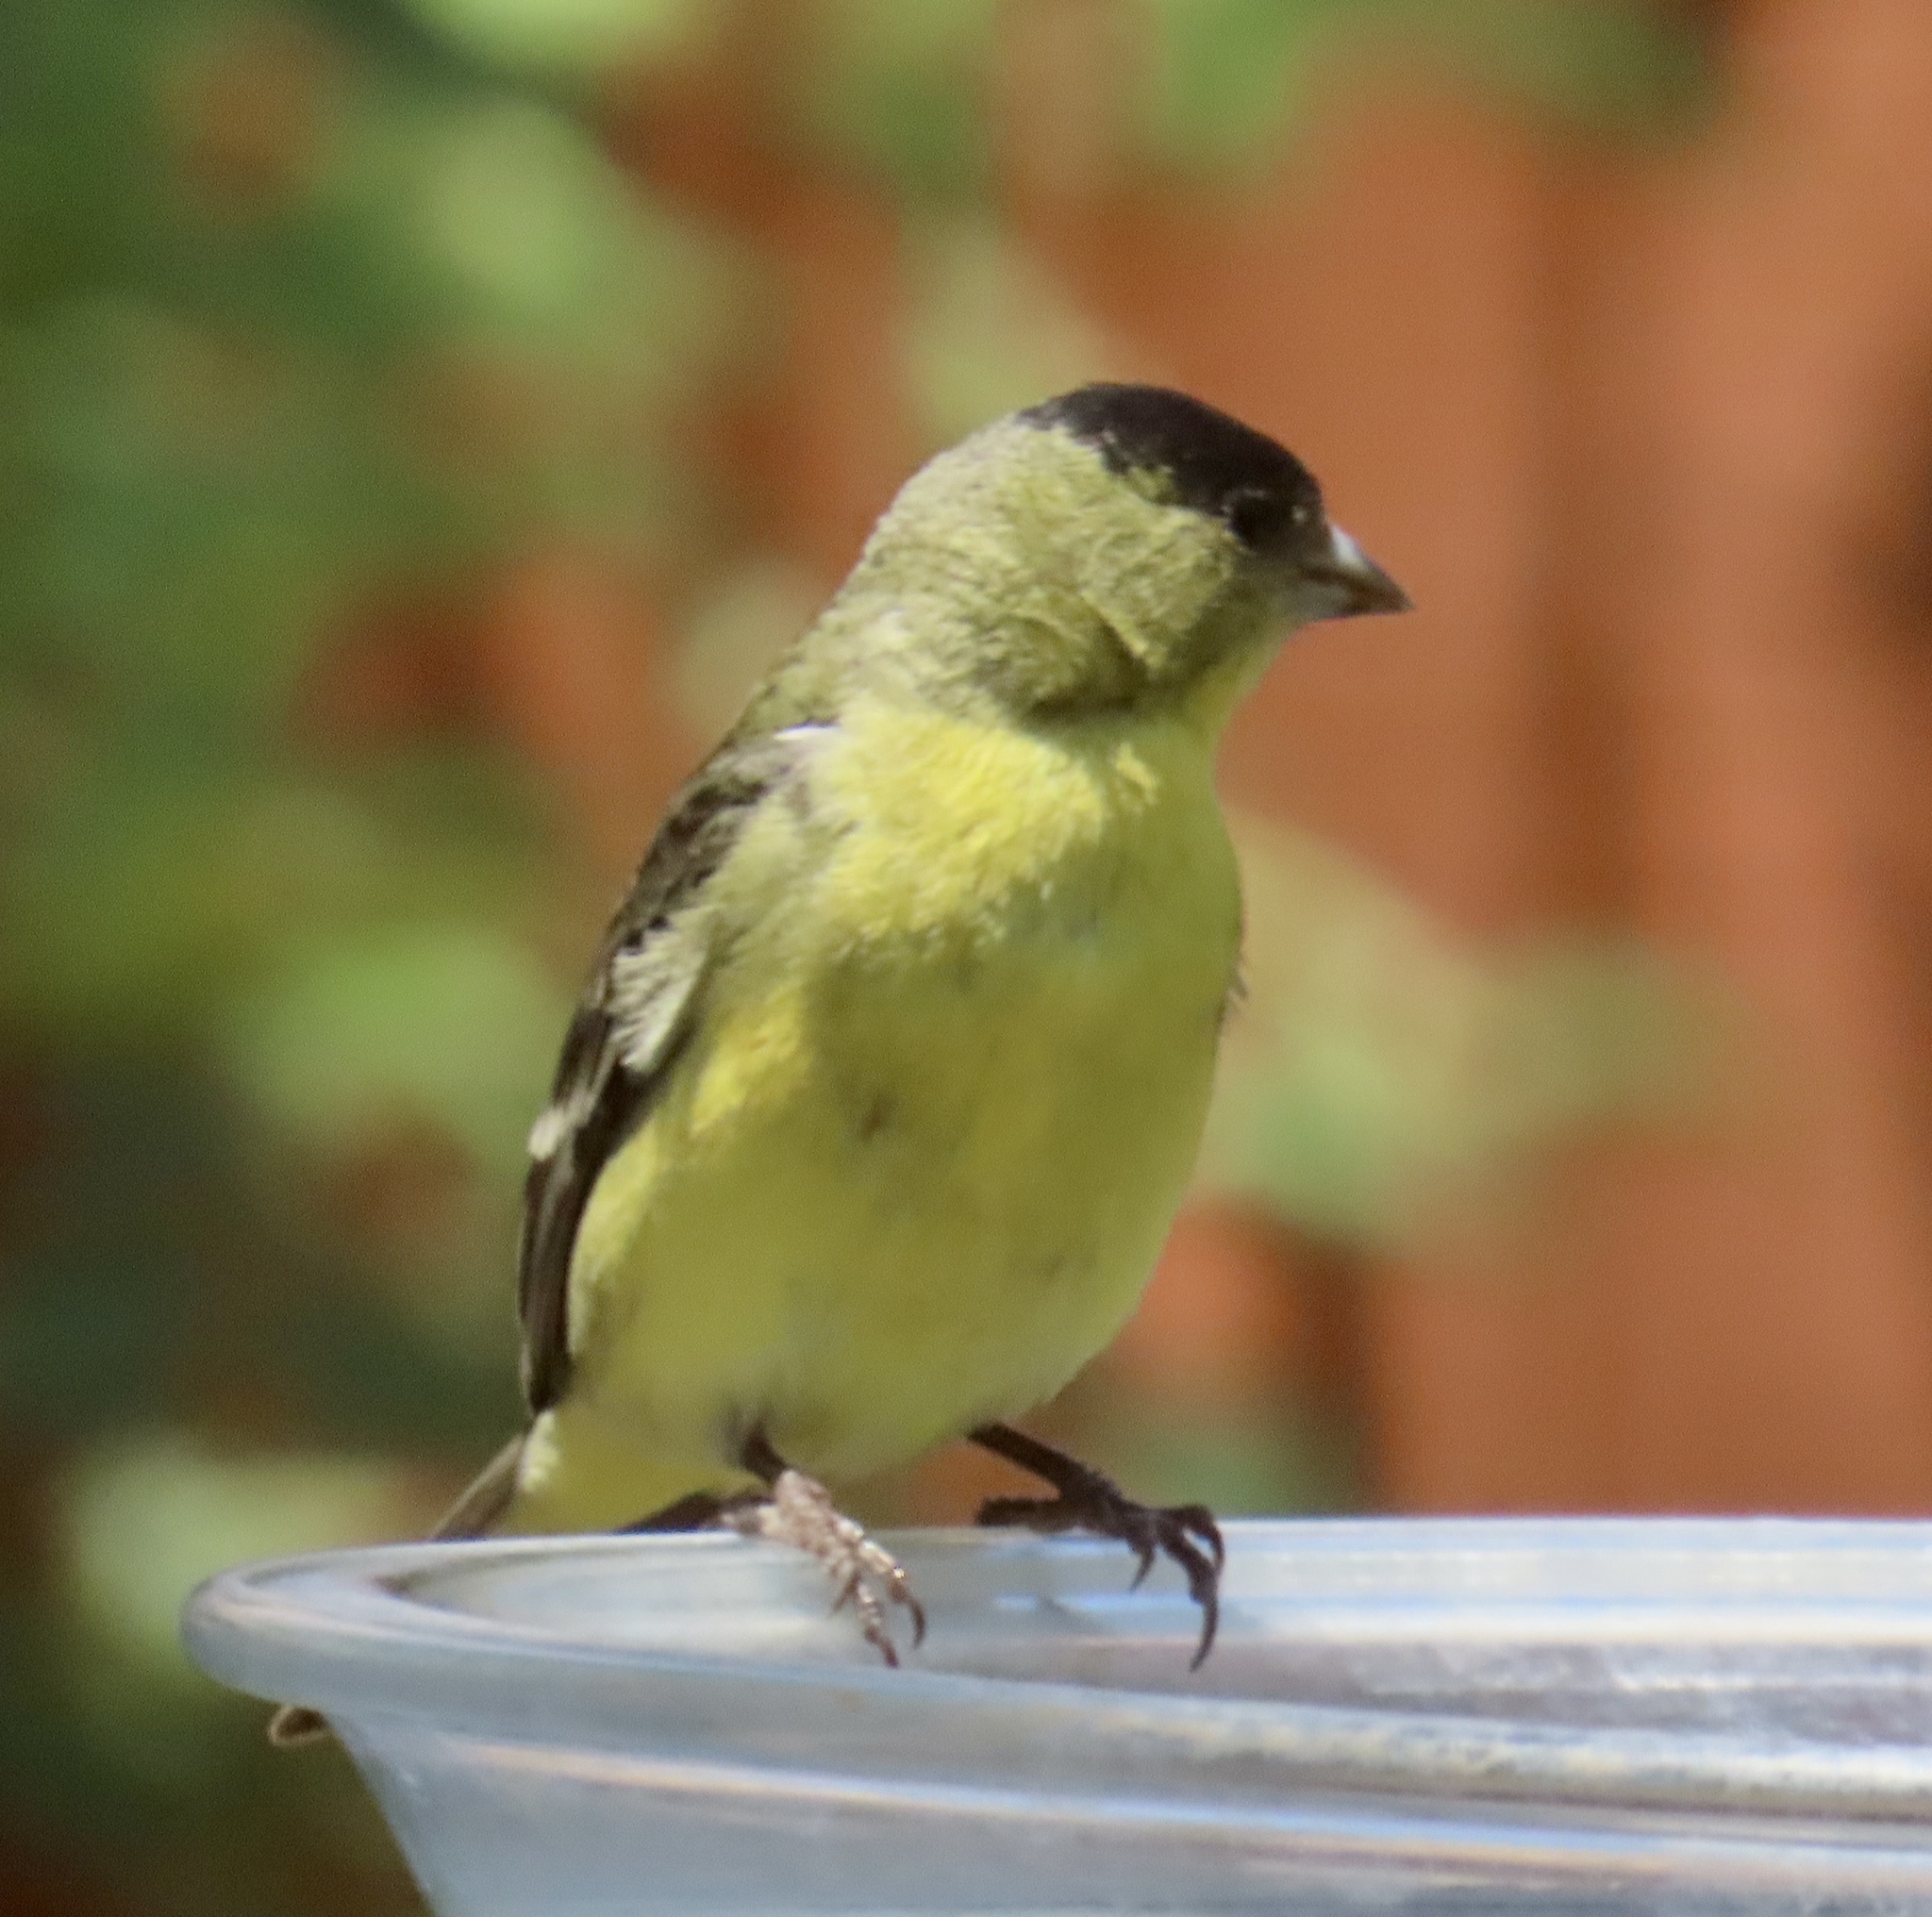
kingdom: Animalia
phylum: Chordata
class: Aves
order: Passeriformes
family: Fringillidae
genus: Spinus
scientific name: Spinus psaltria
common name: Lesser goldfinch
